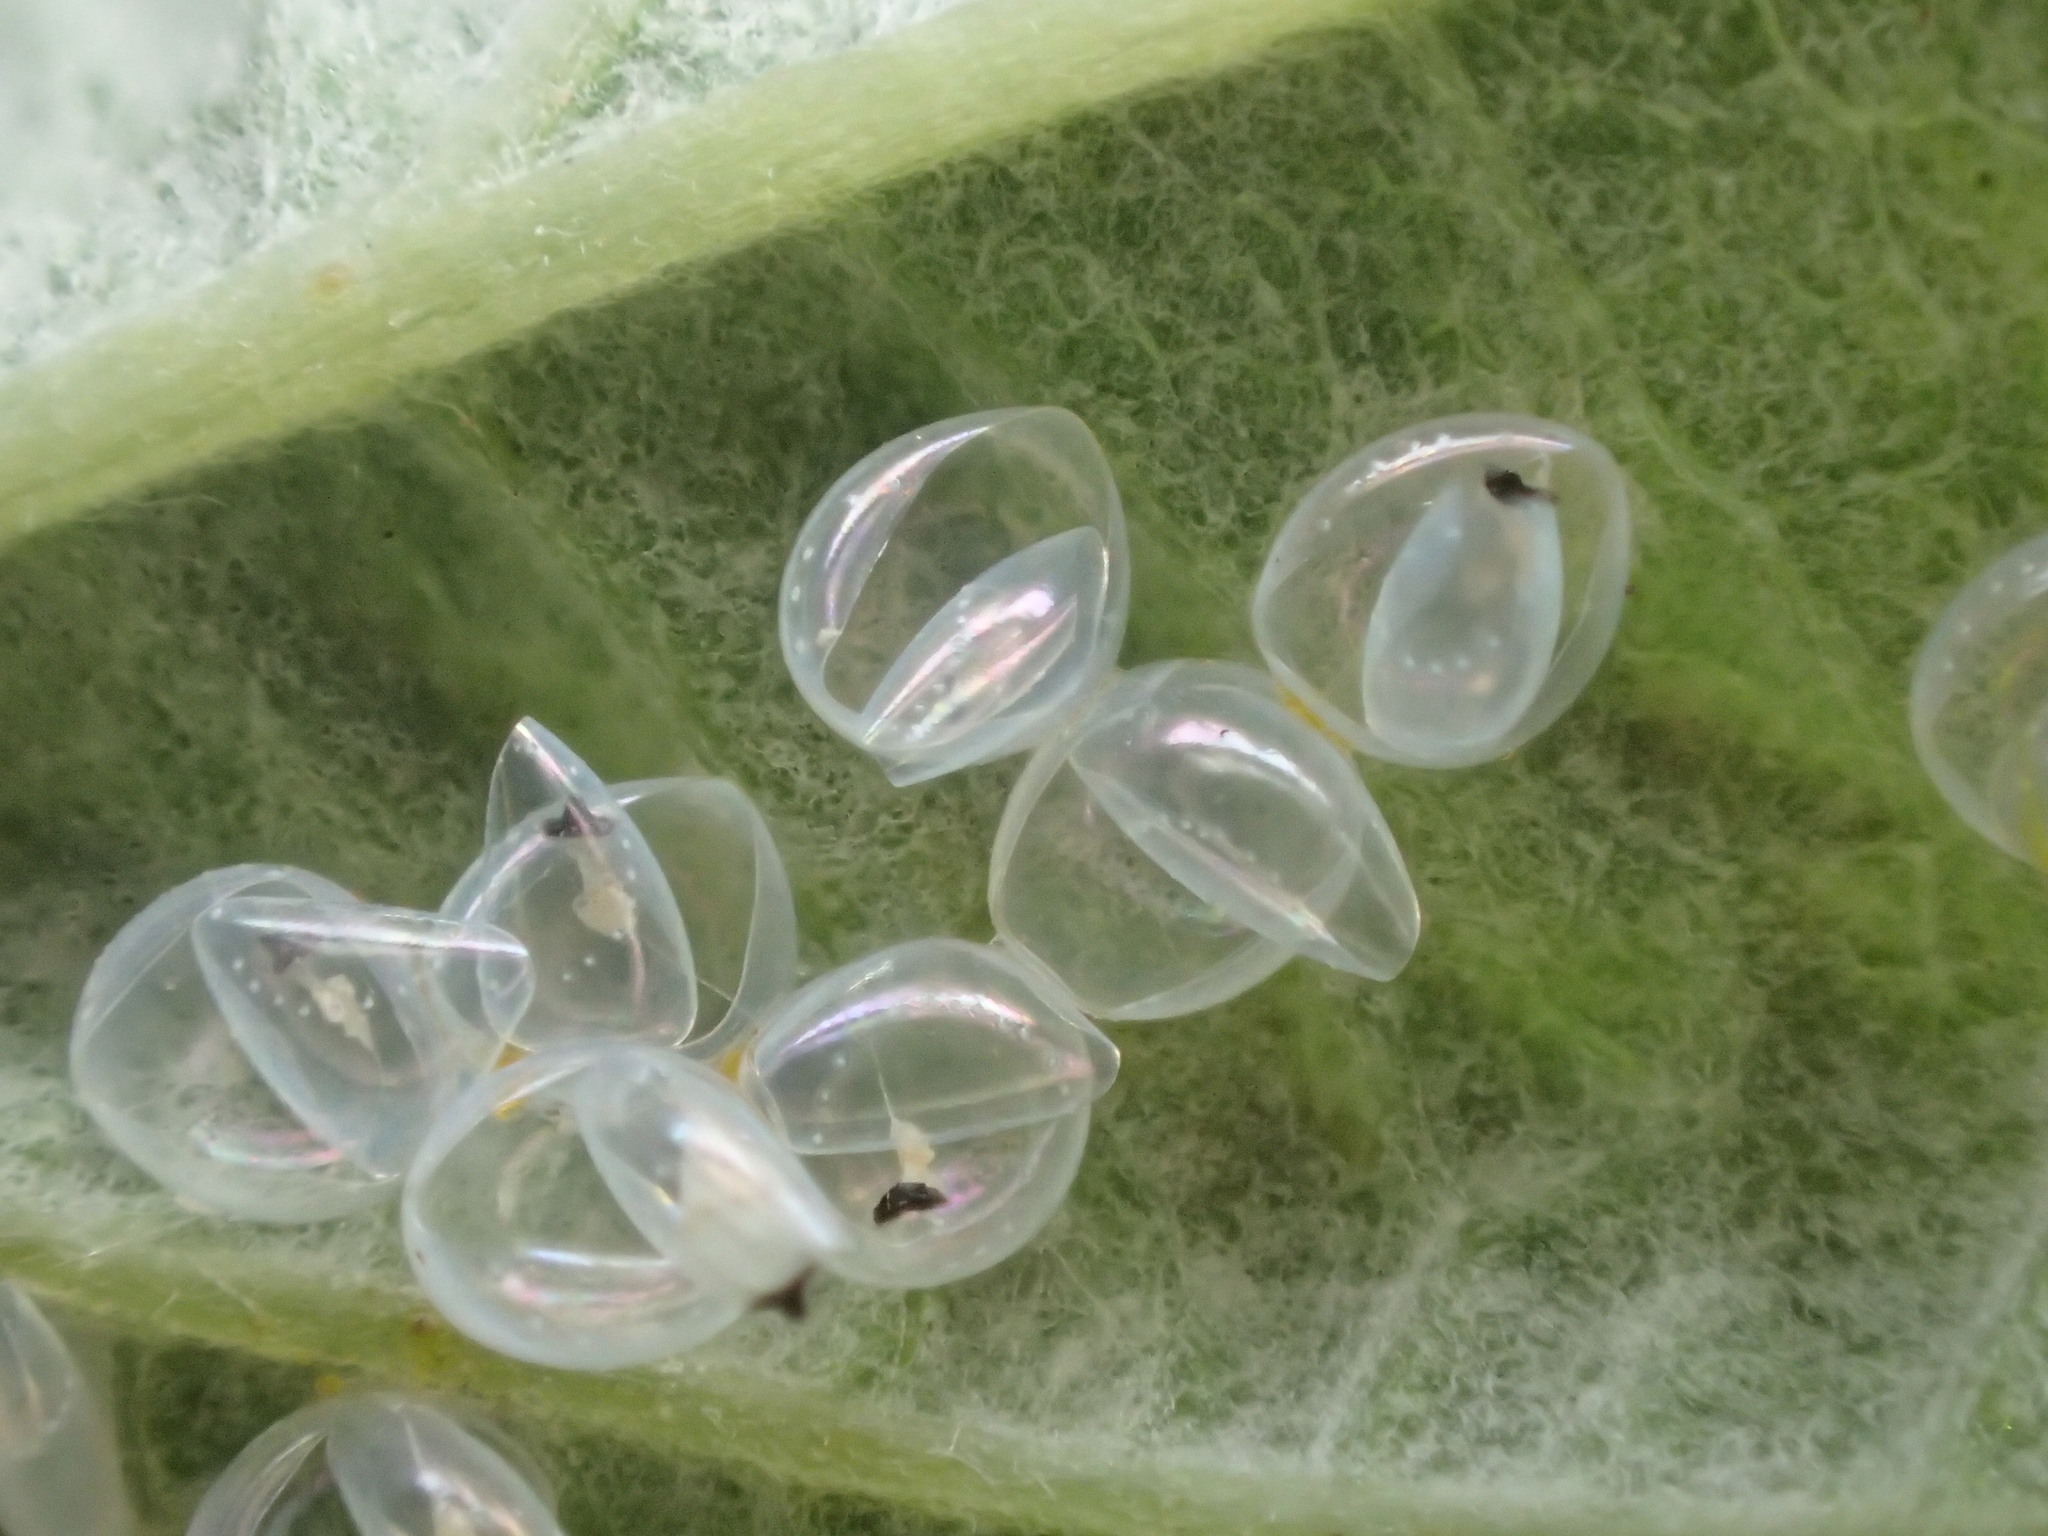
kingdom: Animalia
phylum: Arthropoda
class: Insecta
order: Hemiptera
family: Scutelleridae
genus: Scutiphora
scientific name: Scutiphora pedicellata
